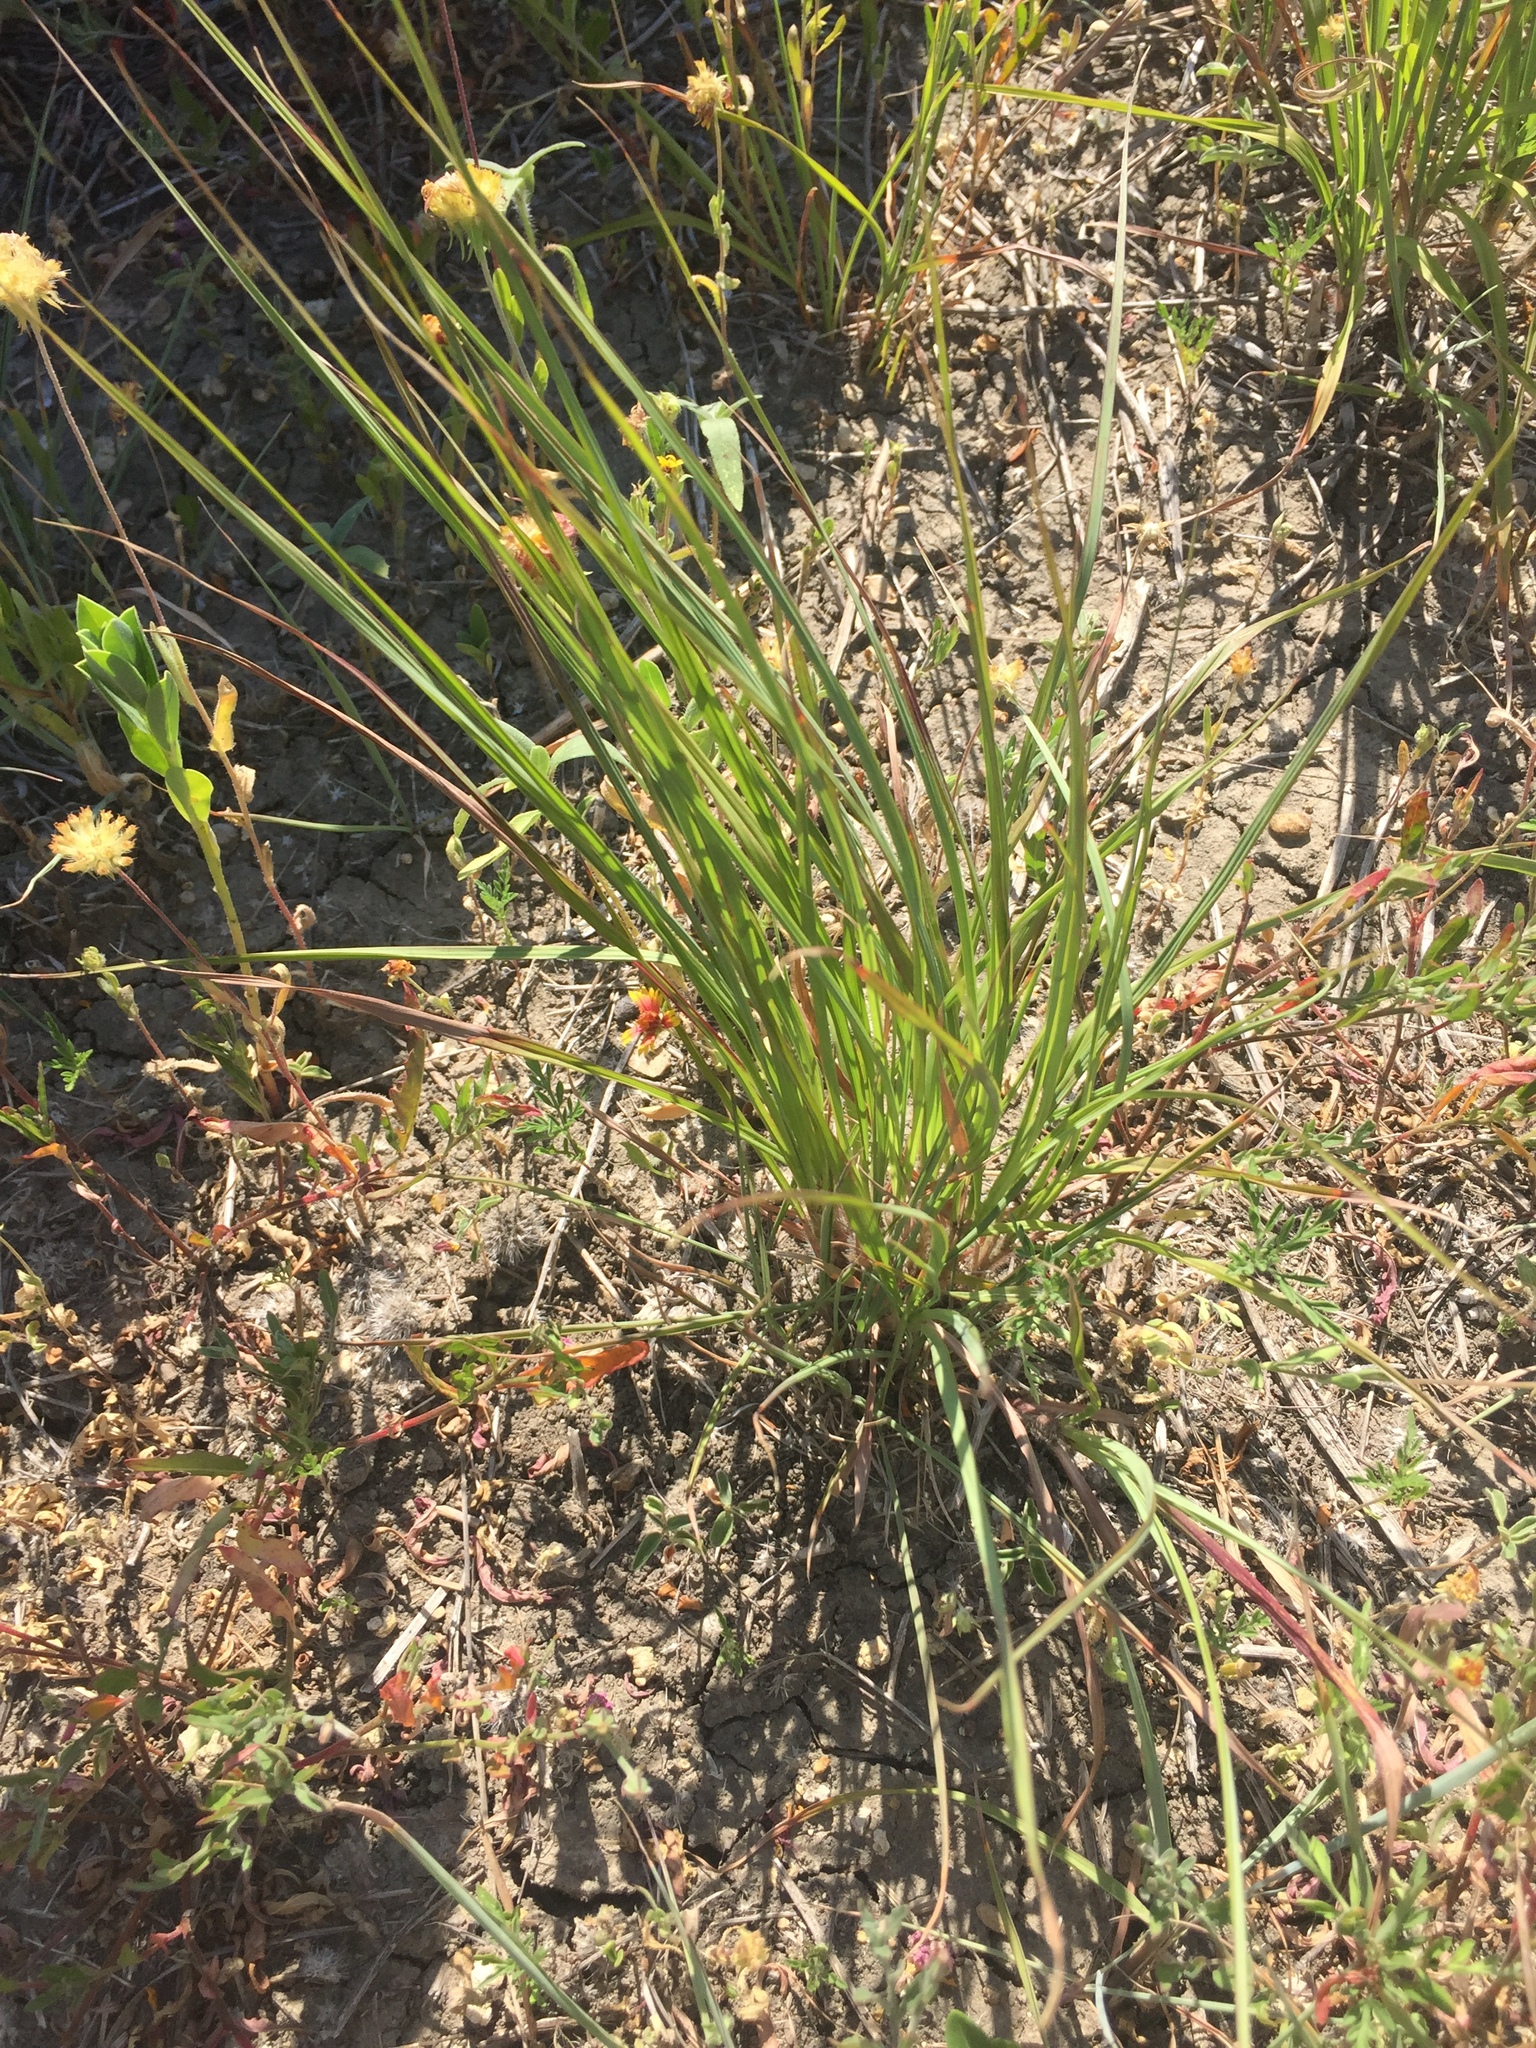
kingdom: Plantae
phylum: Tracheophyta
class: Liliopsida
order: Poales
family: Poaceae
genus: Andropogon
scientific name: Andropogon gerardi
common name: Big bluestem
